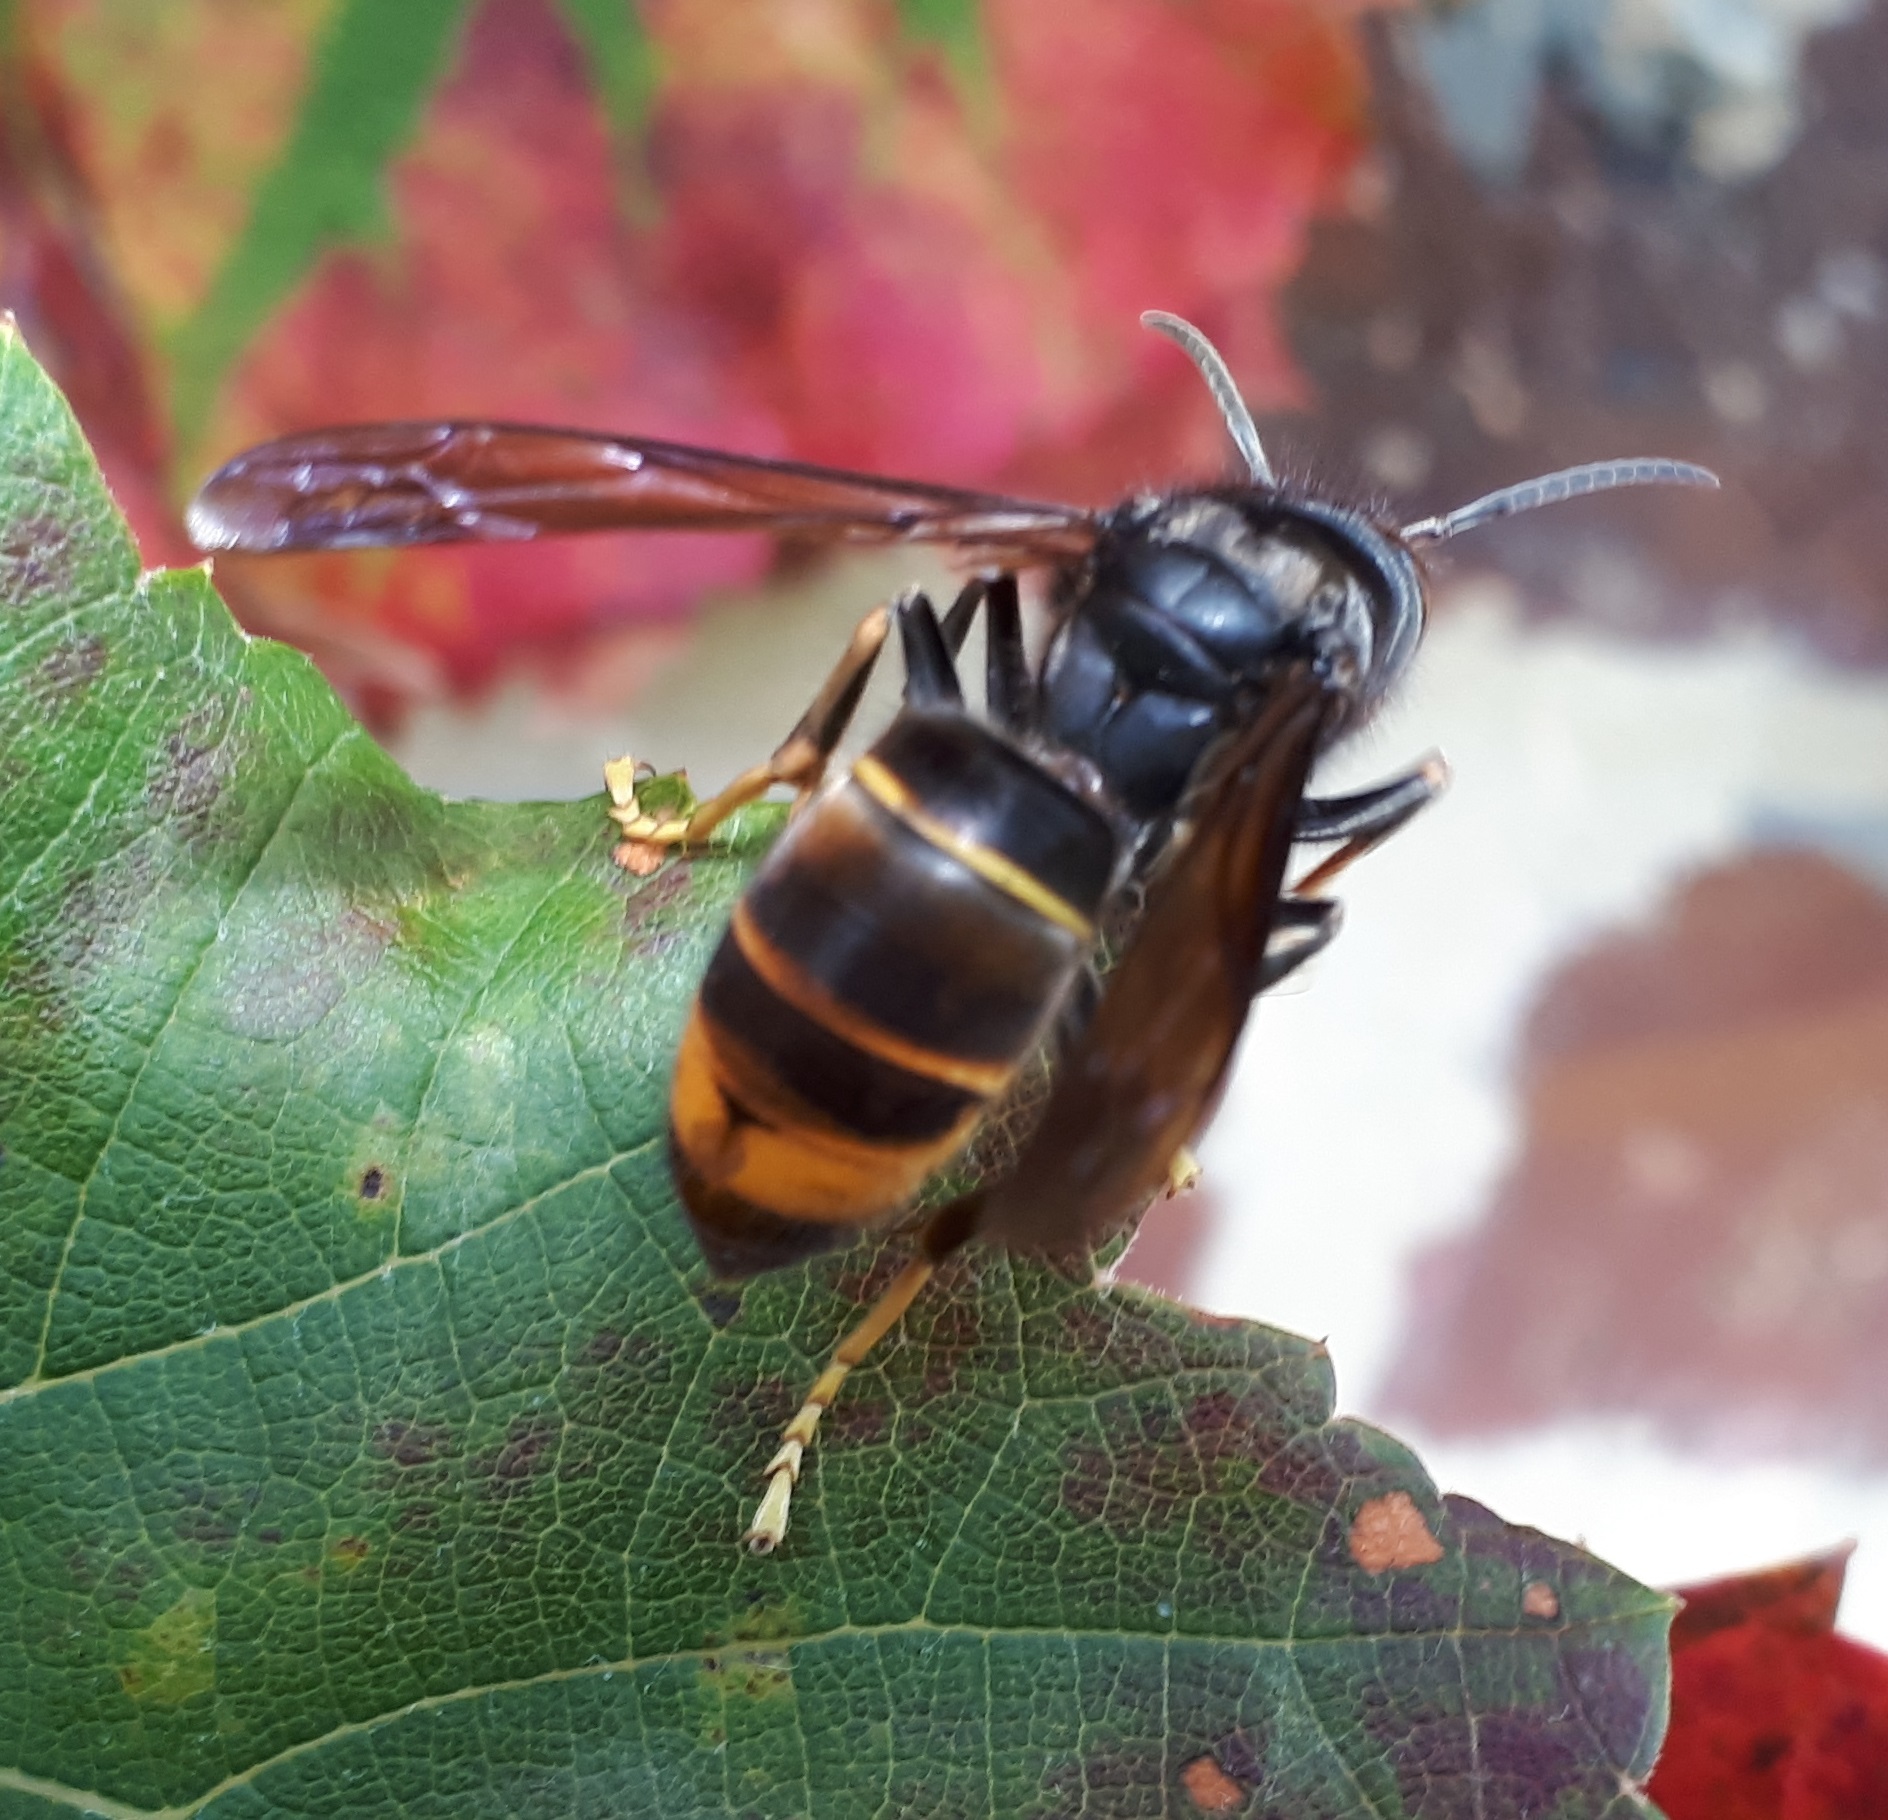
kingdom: Animalia
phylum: Arthropoda
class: Insecta
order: Hymenoptera
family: Vespidae
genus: Vespa
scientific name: Vespa velutina
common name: Asian hornet
